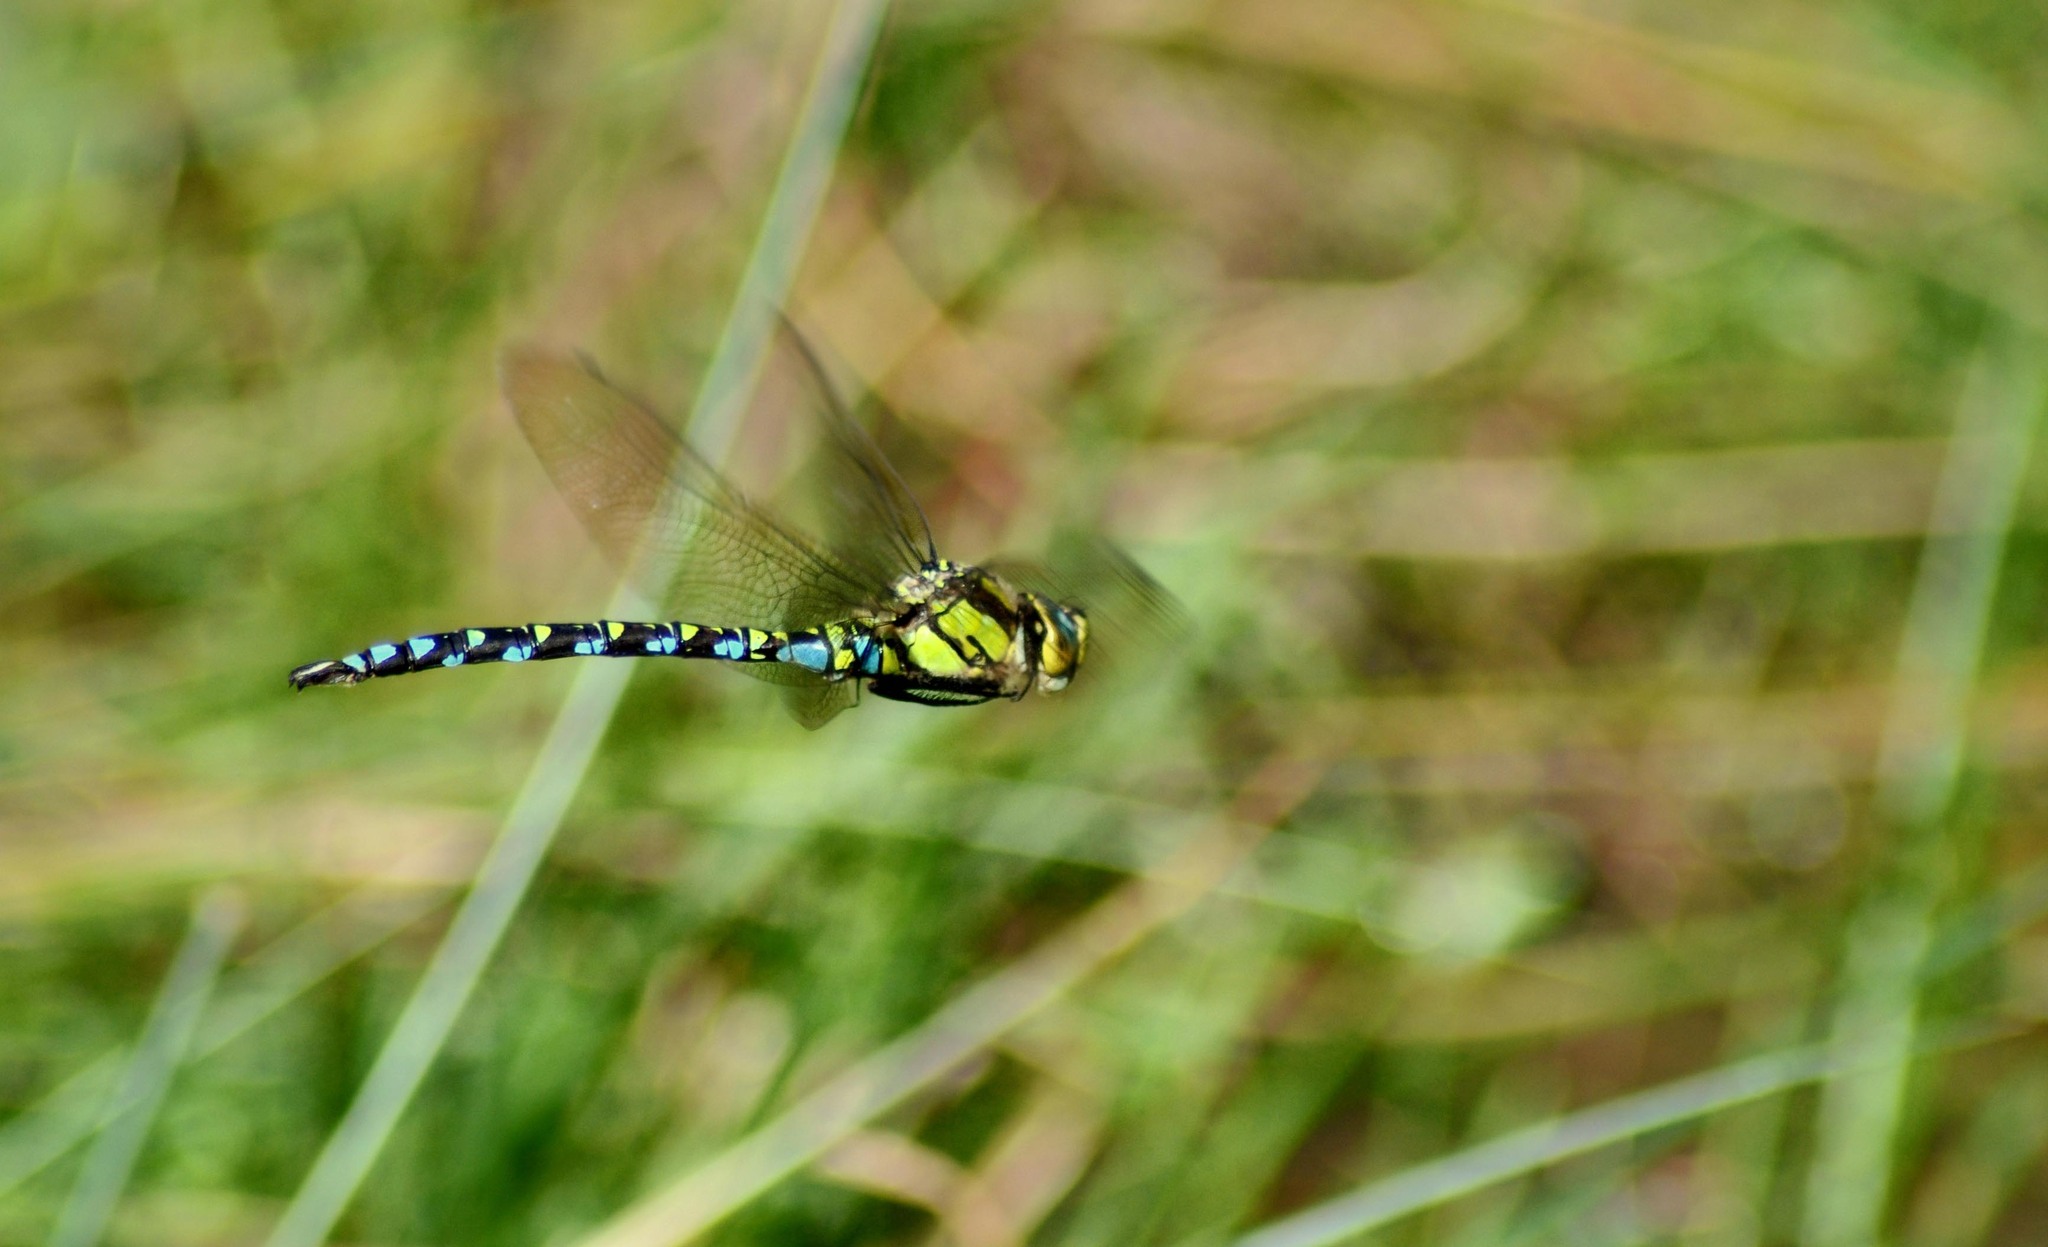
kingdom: Animalia
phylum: Arthropoda
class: Insecta
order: Odonata
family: Aeshnidae
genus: Aeshna
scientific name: Aeshna cyanea
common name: Southern hawker
